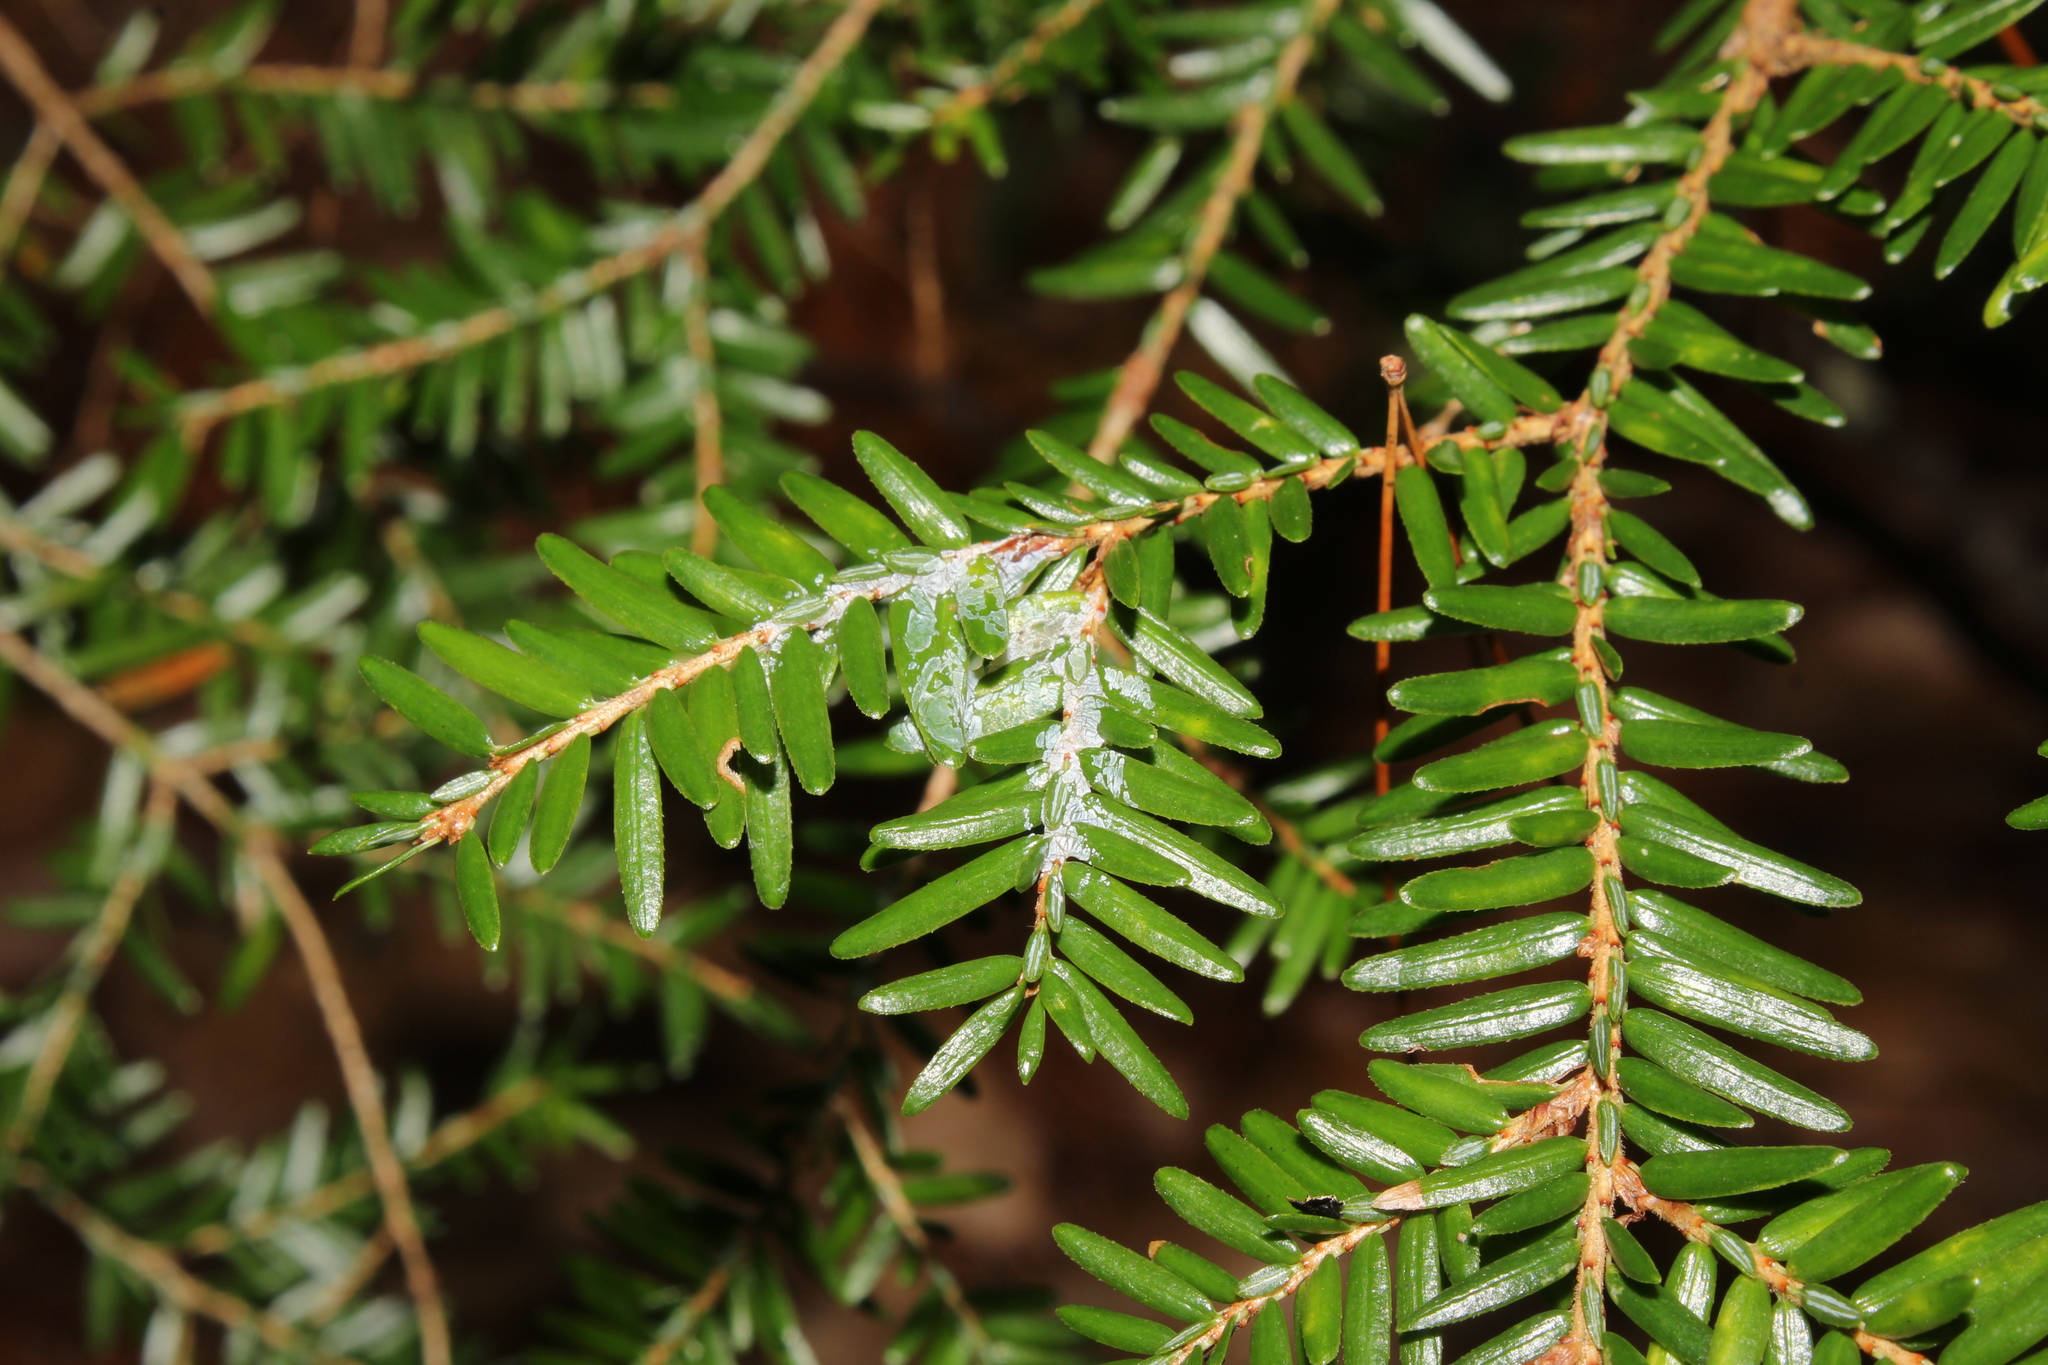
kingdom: Animalia
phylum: Arthropoda
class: Insecta
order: Hemiptera
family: Adelgidae
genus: Adelges
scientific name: Adelges tsugae
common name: Hemlock woolly adelgid
